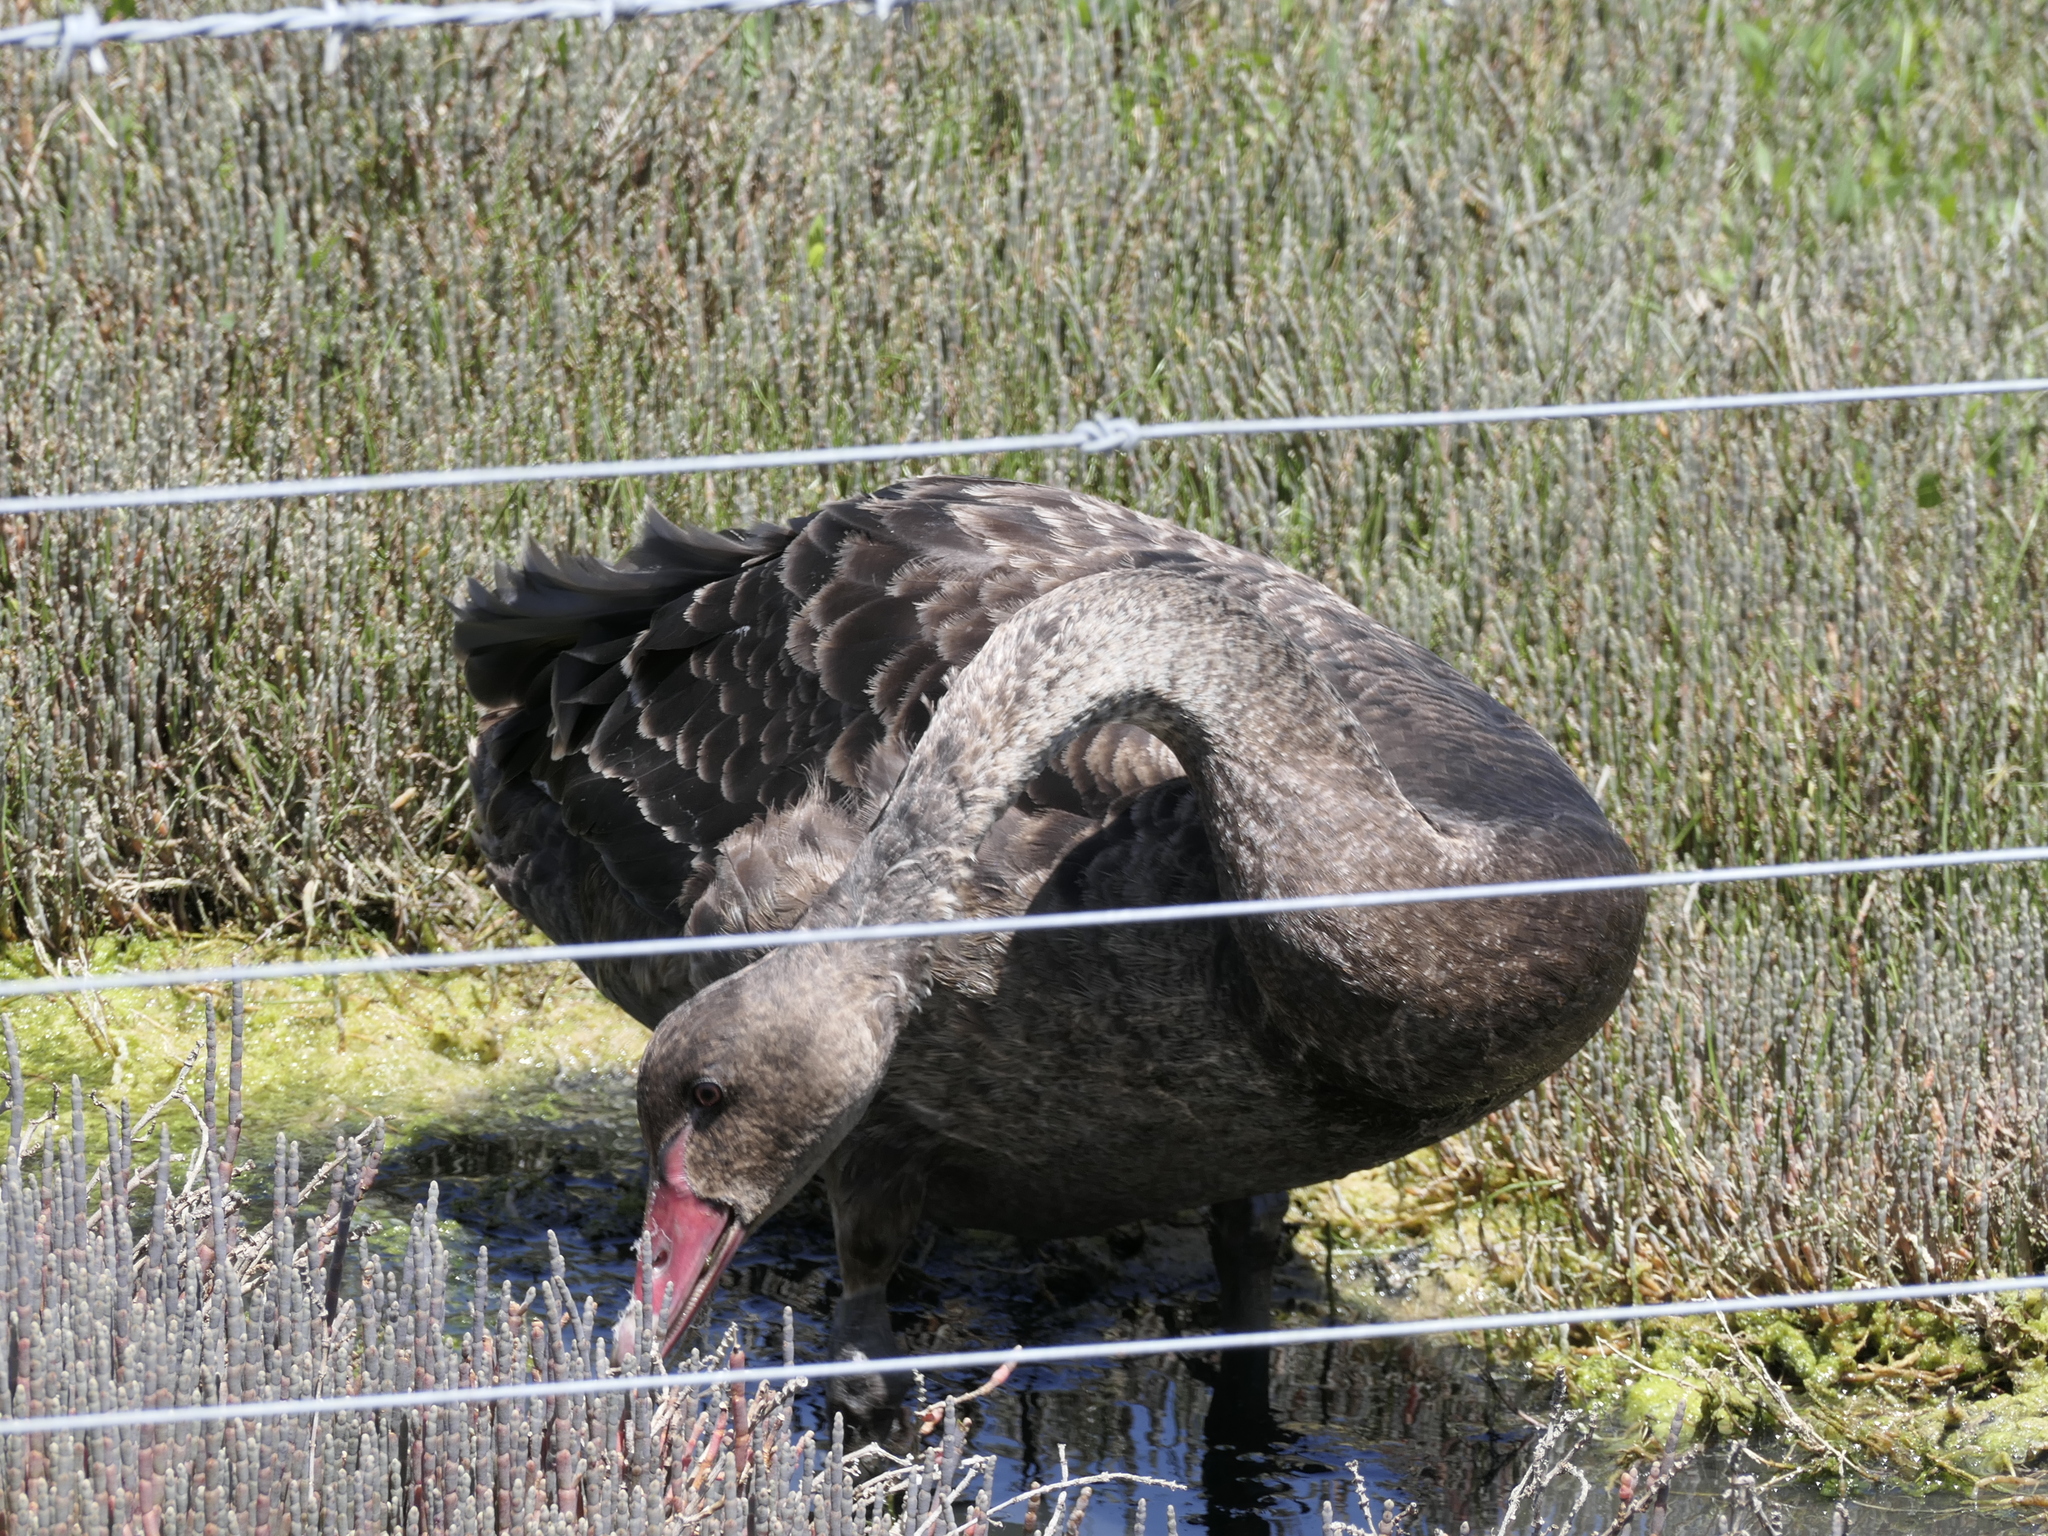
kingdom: Animalia
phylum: Chordata
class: Aves
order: Anseriformes
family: Anatidae
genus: Cygnus
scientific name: Cygnus atratus
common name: Black swan
